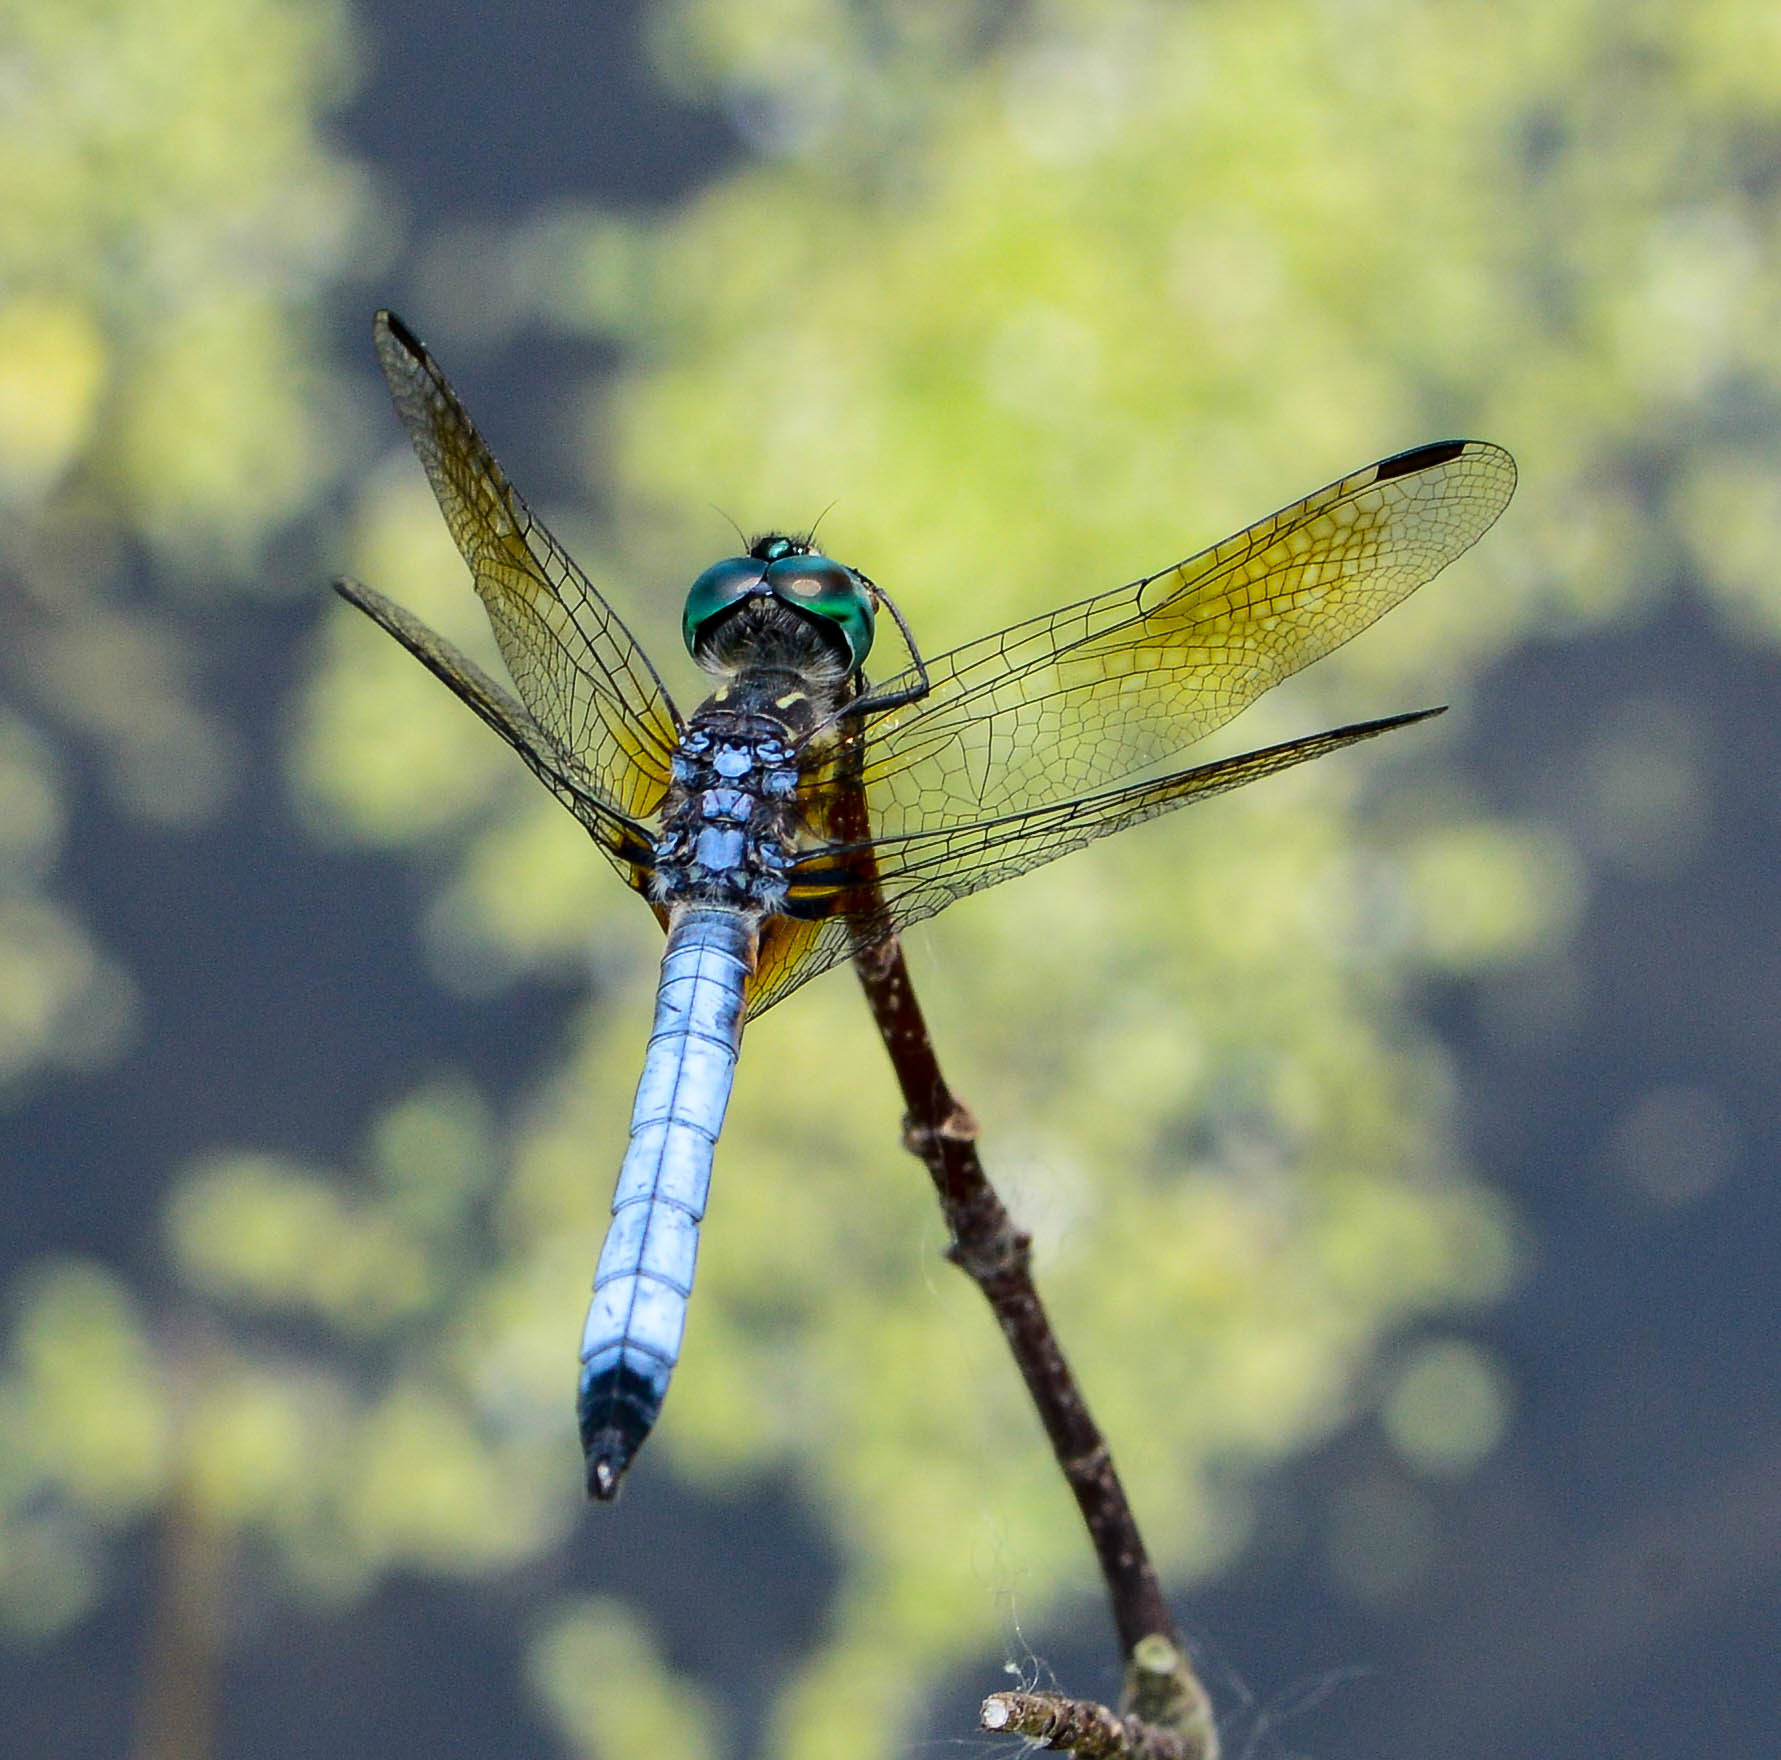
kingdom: Animalia
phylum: Arthropoda
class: Insecta
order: Odonata
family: Libellulidae
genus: Pachydiplax
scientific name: Pachydiplax longipennis
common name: Blue dasher
